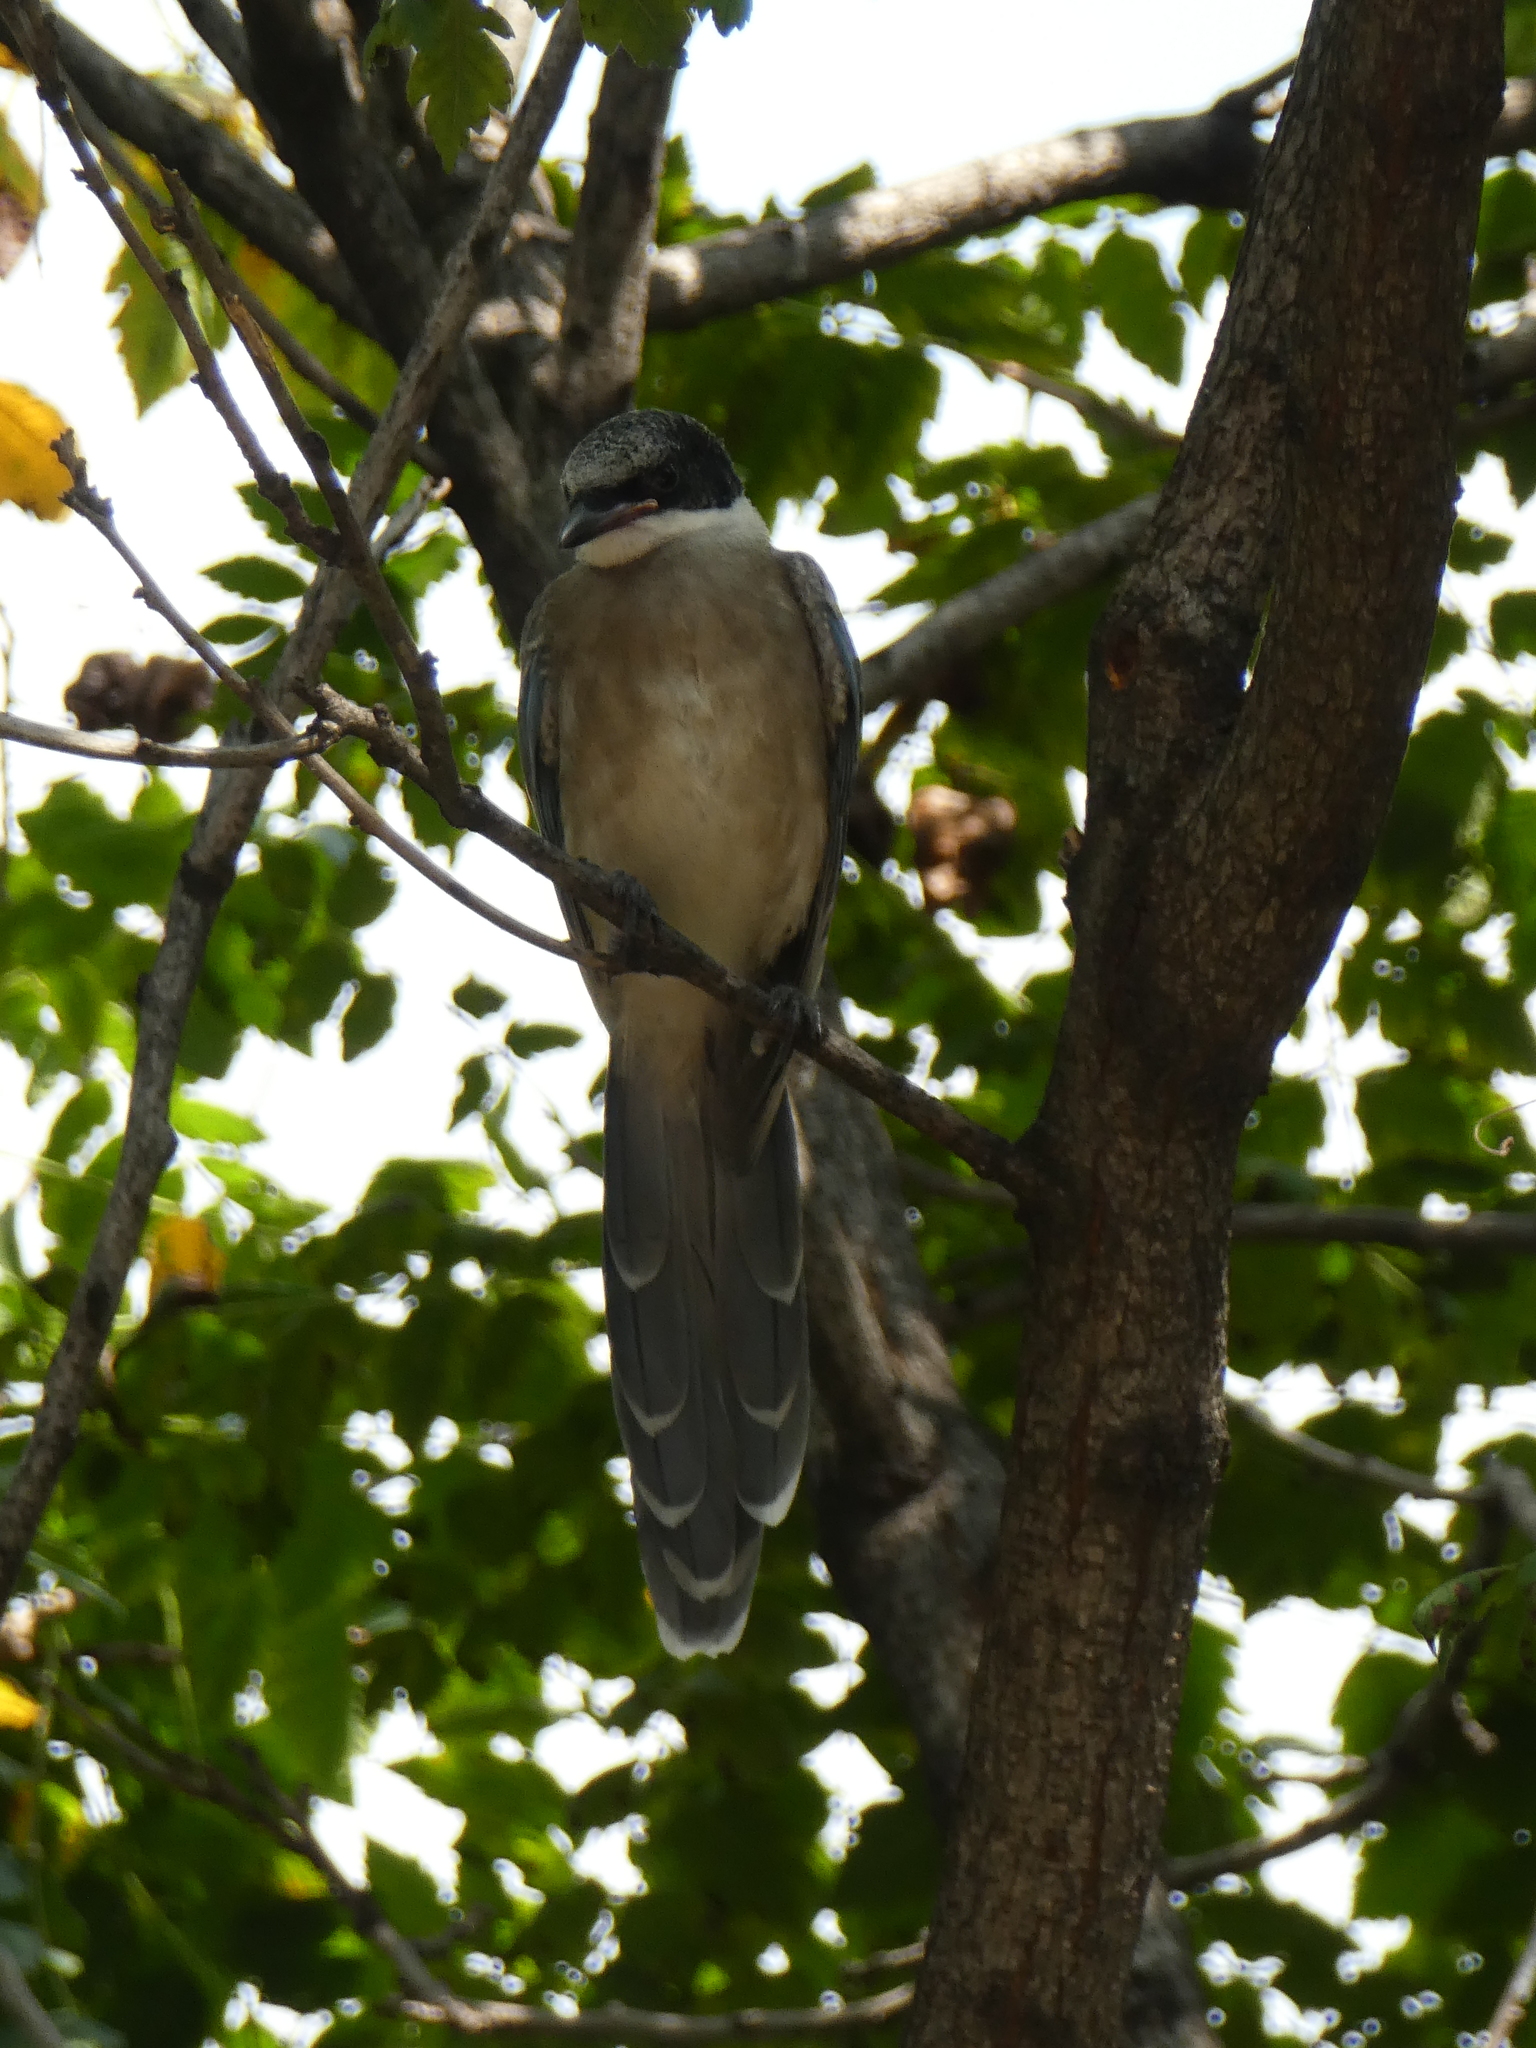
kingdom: Animalia
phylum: Chordata
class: Aves
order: Passeriformes
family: Corvidae
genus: Cyanopica
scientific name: Cyanopica cyanus
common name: Azure-winged magpie
